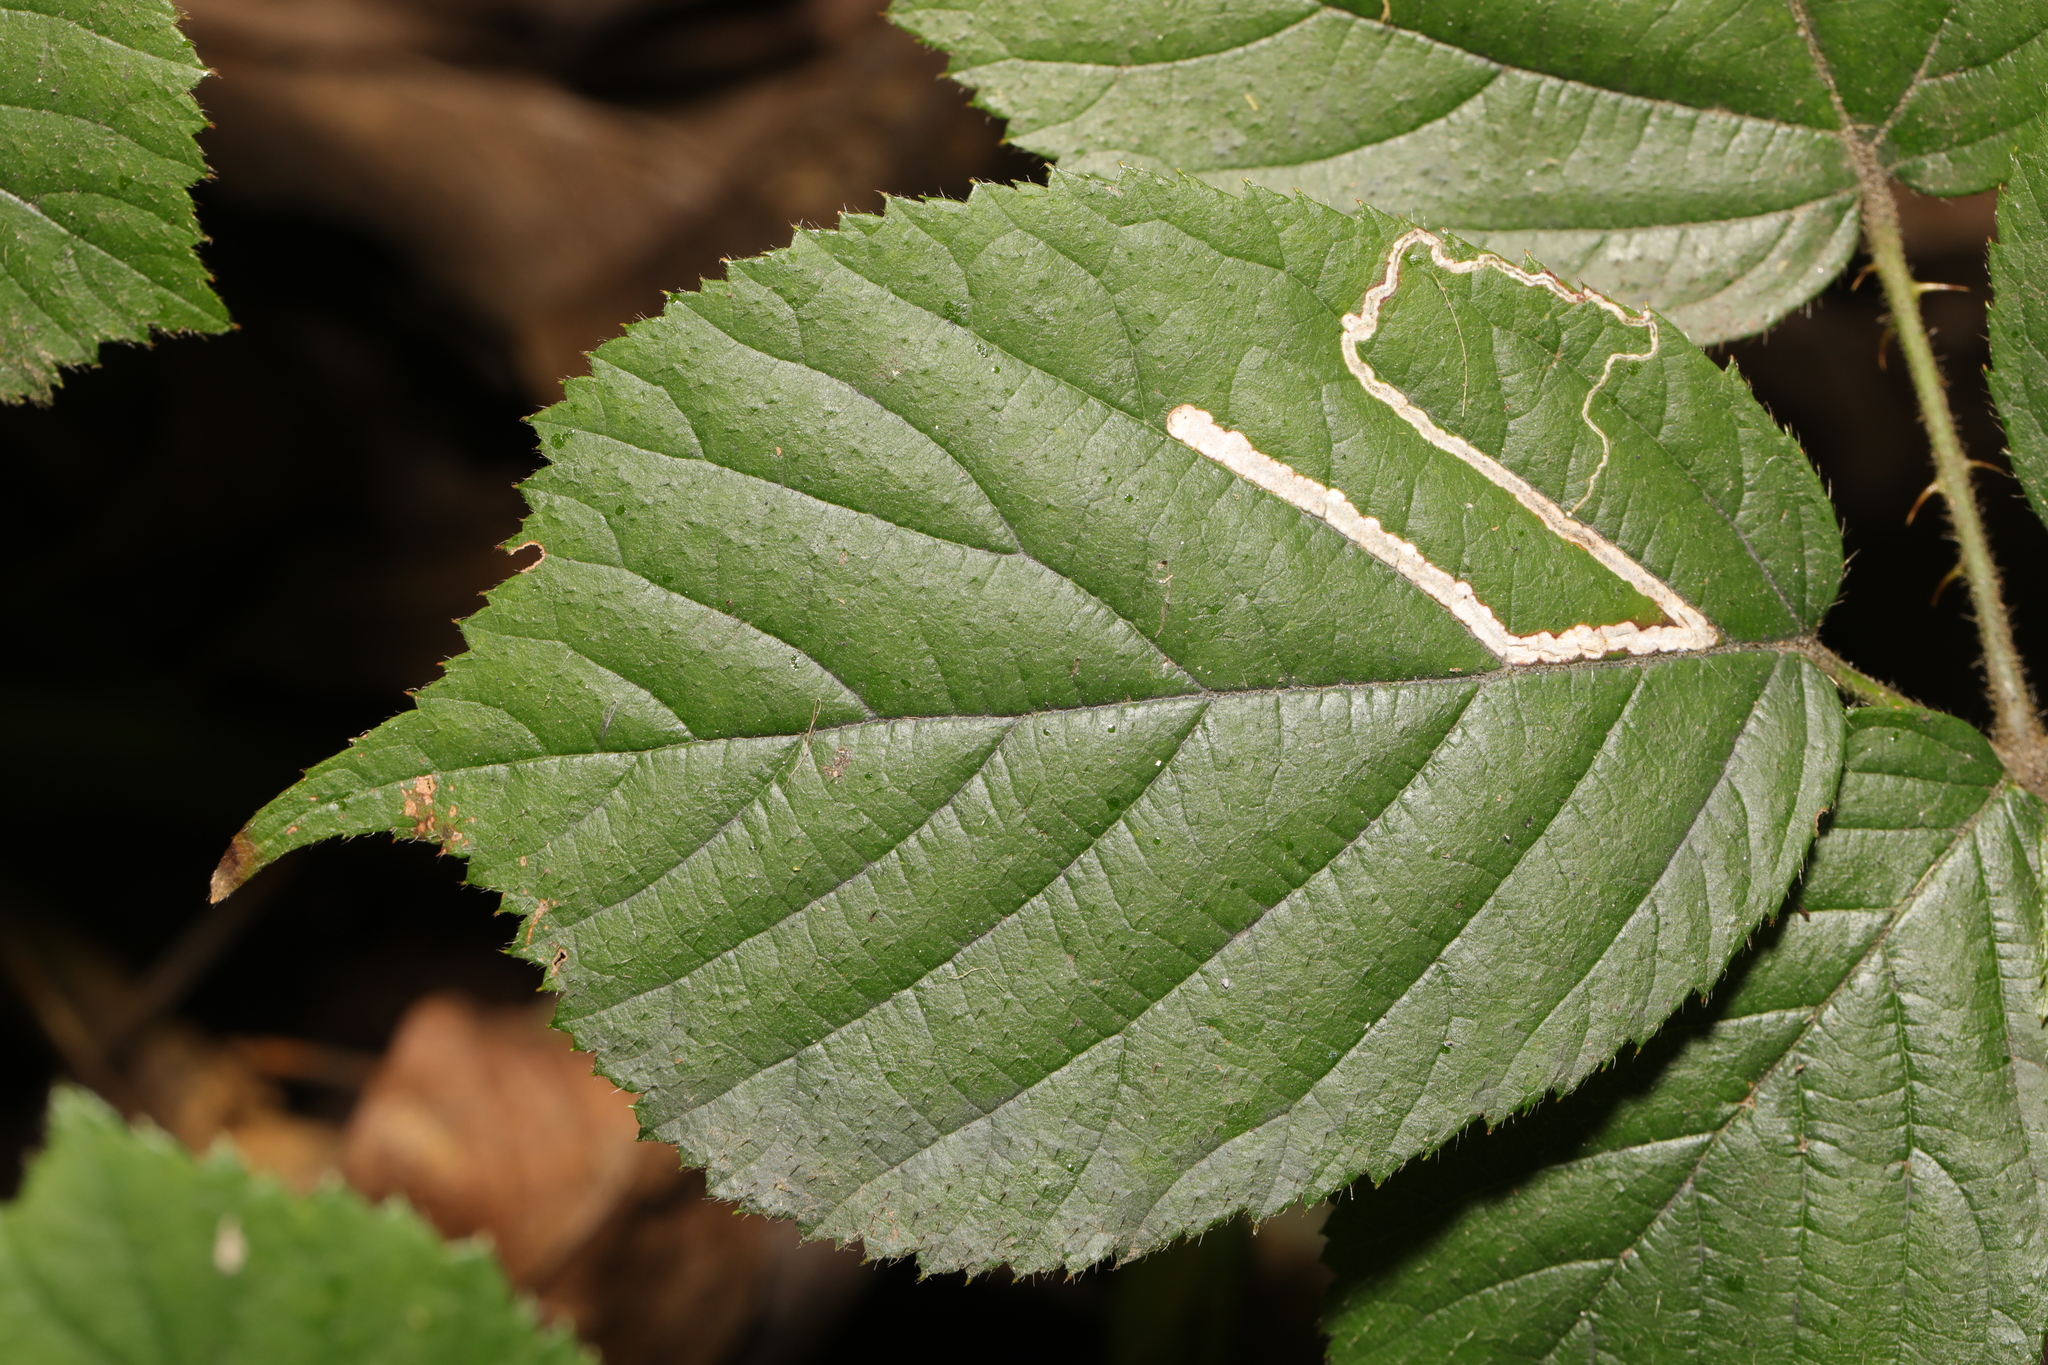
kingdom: Animalia
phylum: Arthropoda
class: Insecta
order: Lepidoptera
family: Nepticulidae
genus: Stigmella
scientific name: Stigmella aurella
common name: Golden pigmy
